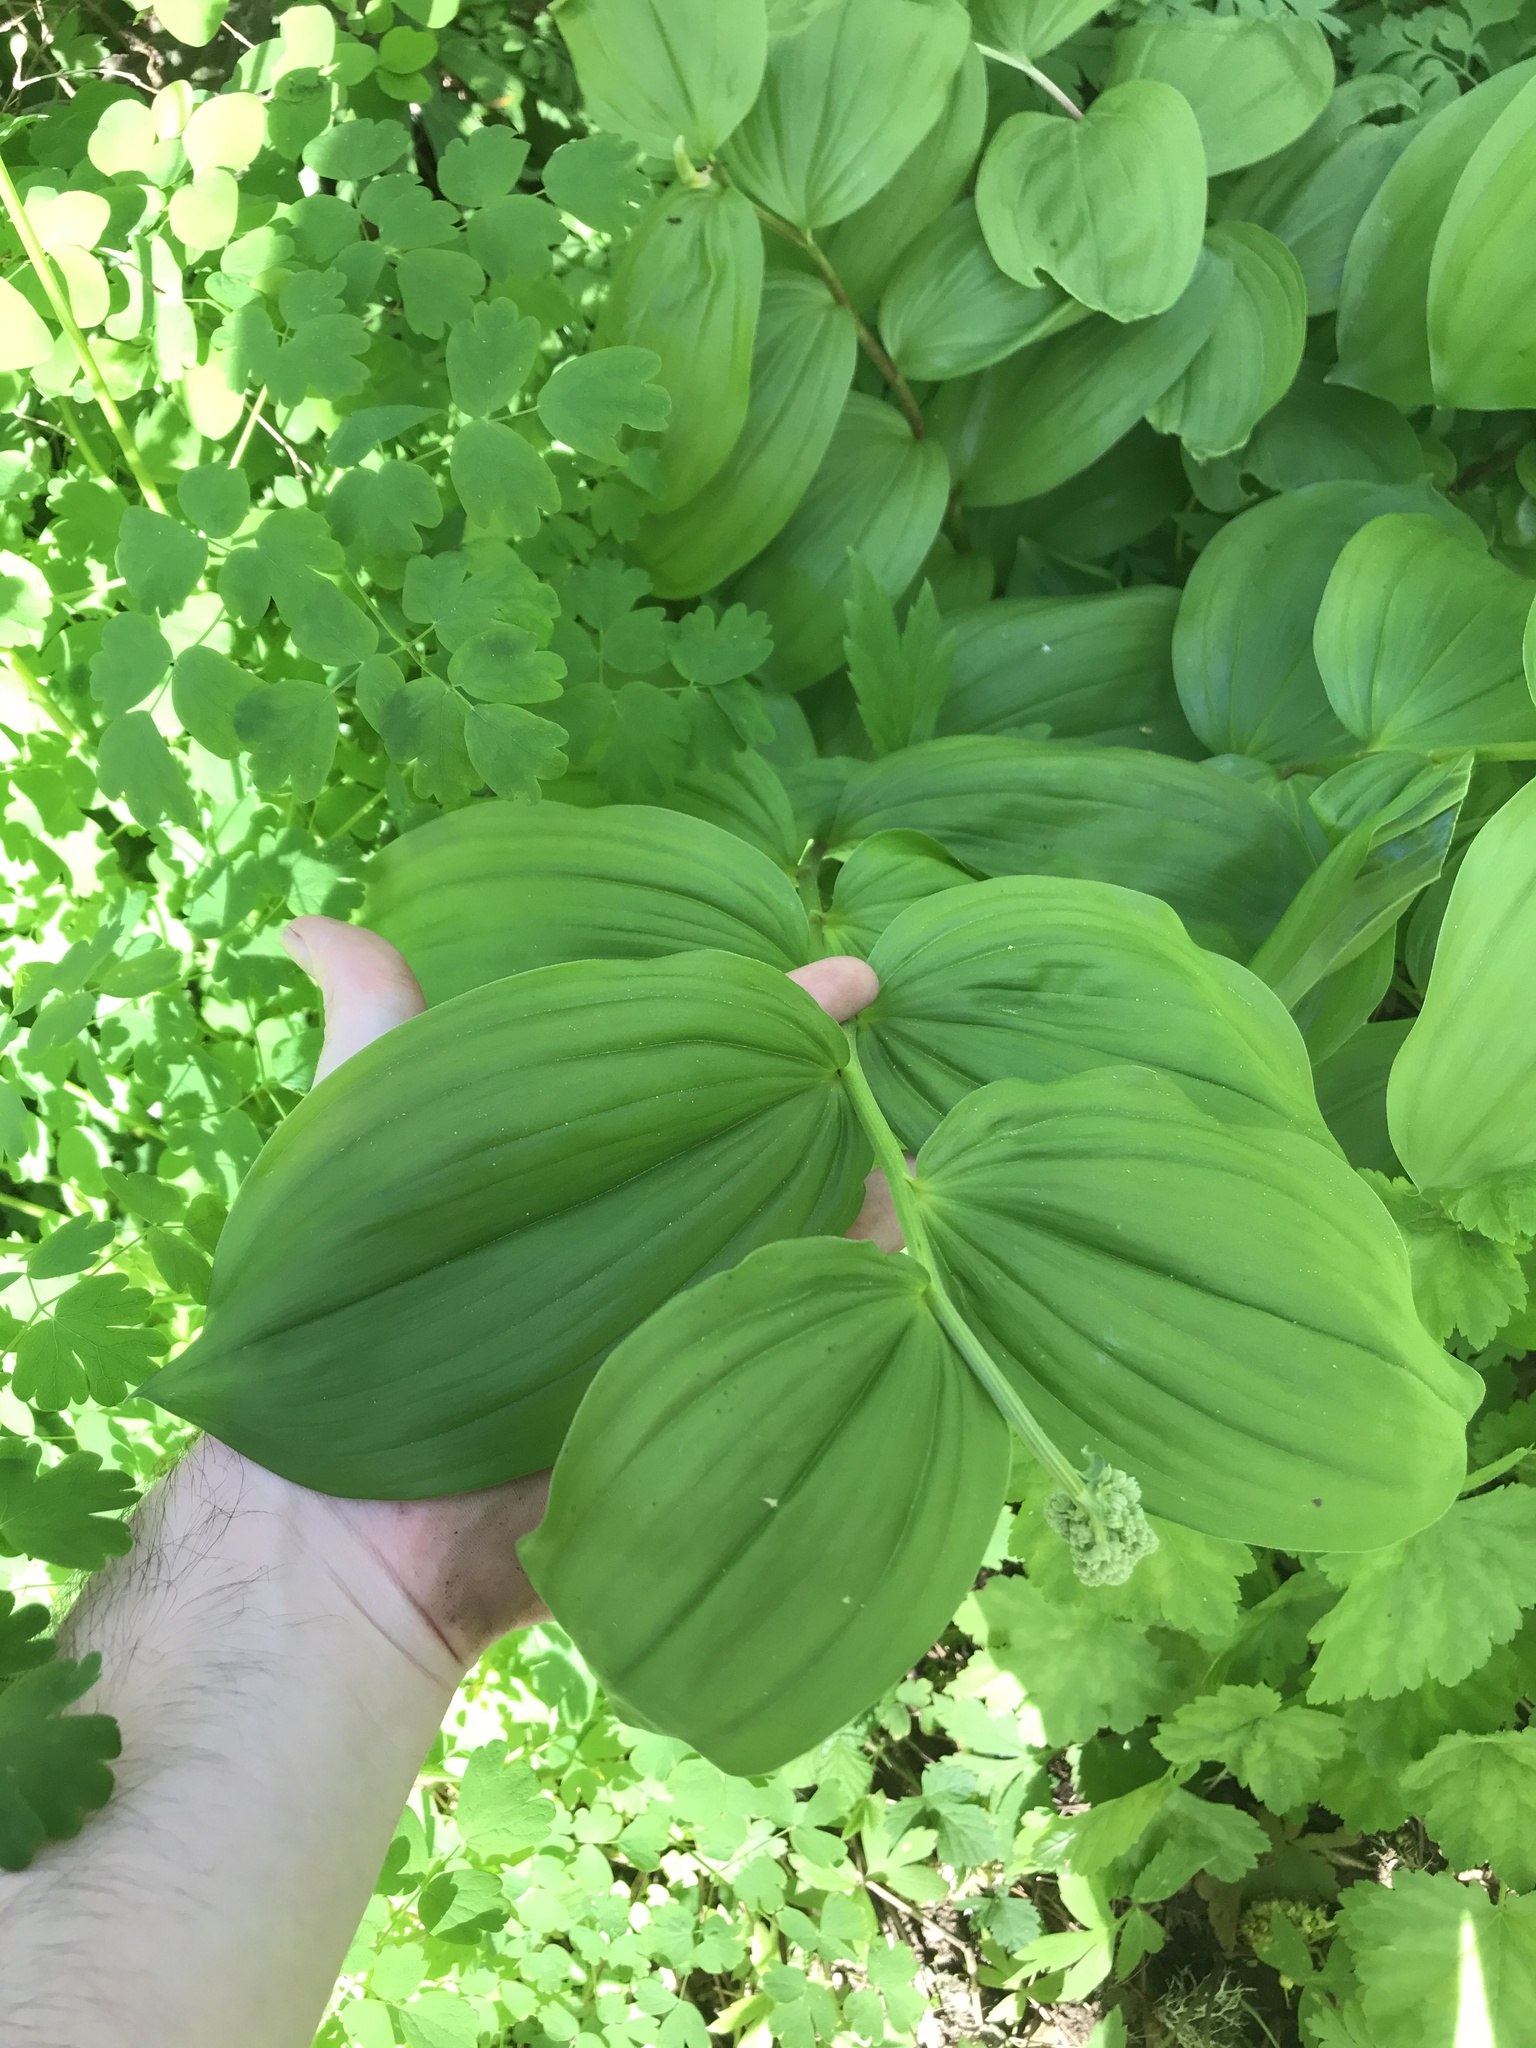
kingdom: Plantae
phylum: Tracheophyta
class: Liliopsida
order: Asparagales
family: Asparagaceae
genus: Maianthemum
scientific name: Maianthemum racemosum
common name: False spikenard
